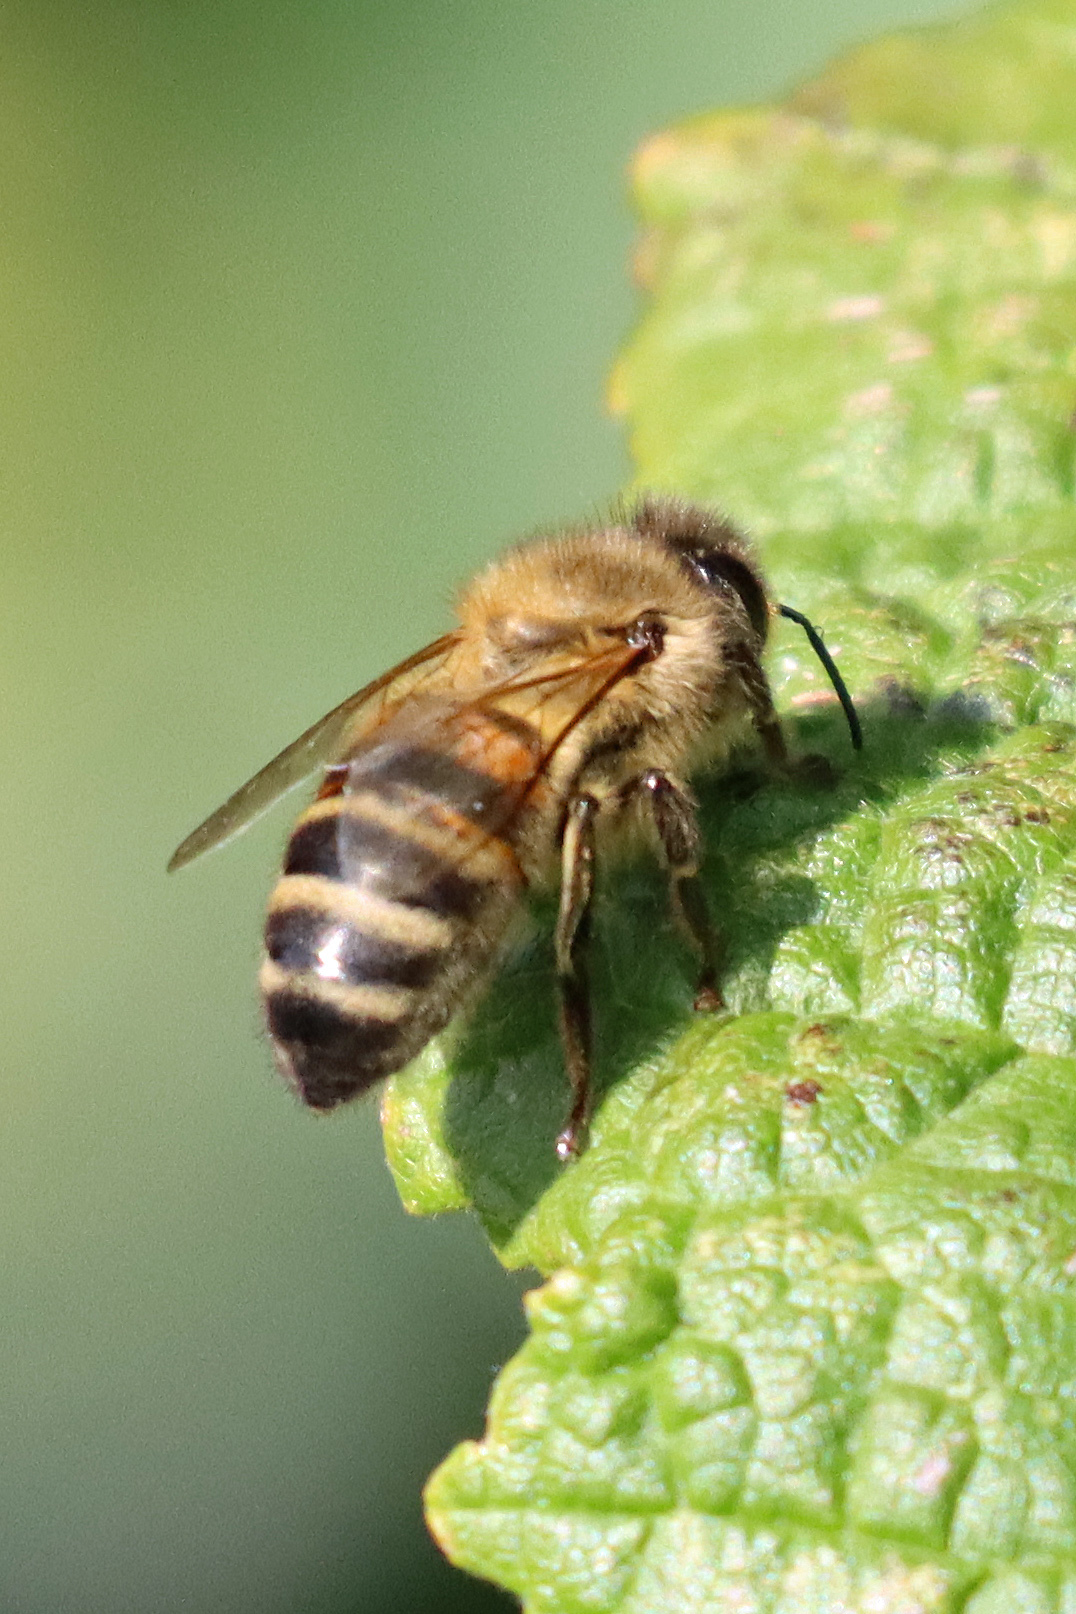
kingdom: Animalia
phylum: Arthropoda
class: Insecta
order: Hymenoptera
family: Apidae
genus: Apis
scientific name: Apis mellifera
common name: Honey bee
